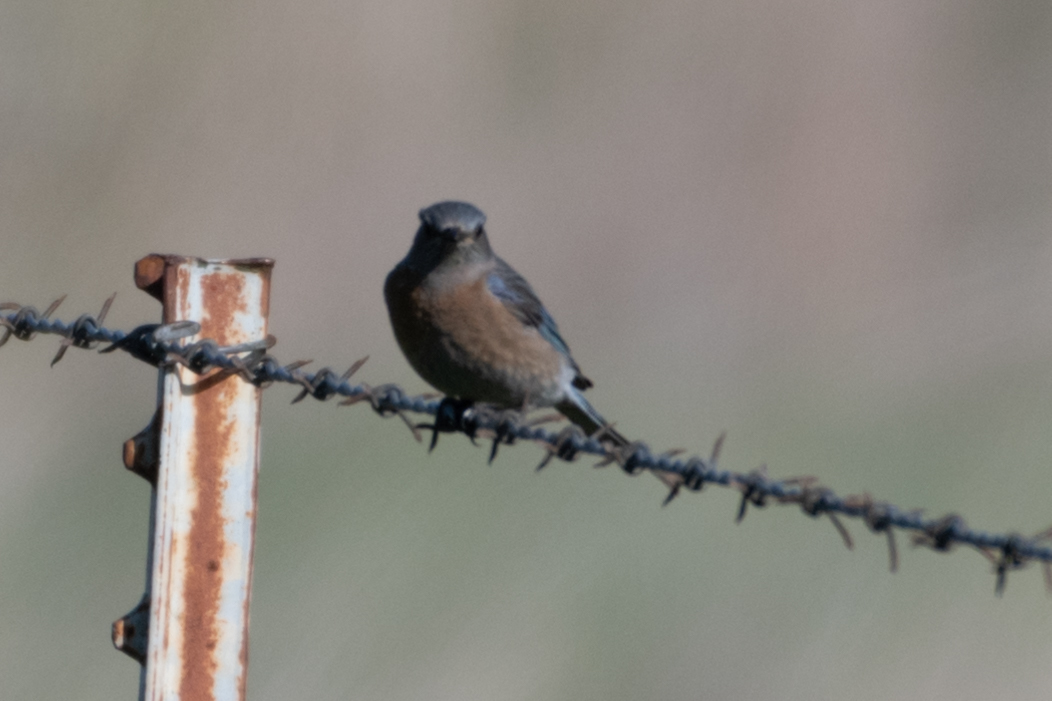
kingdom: Animalia
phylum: Chordata
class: Aves
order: Passeriformes
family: Turdidae
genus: Sialia
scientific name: Sialia mexicana
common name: Western bluebird
